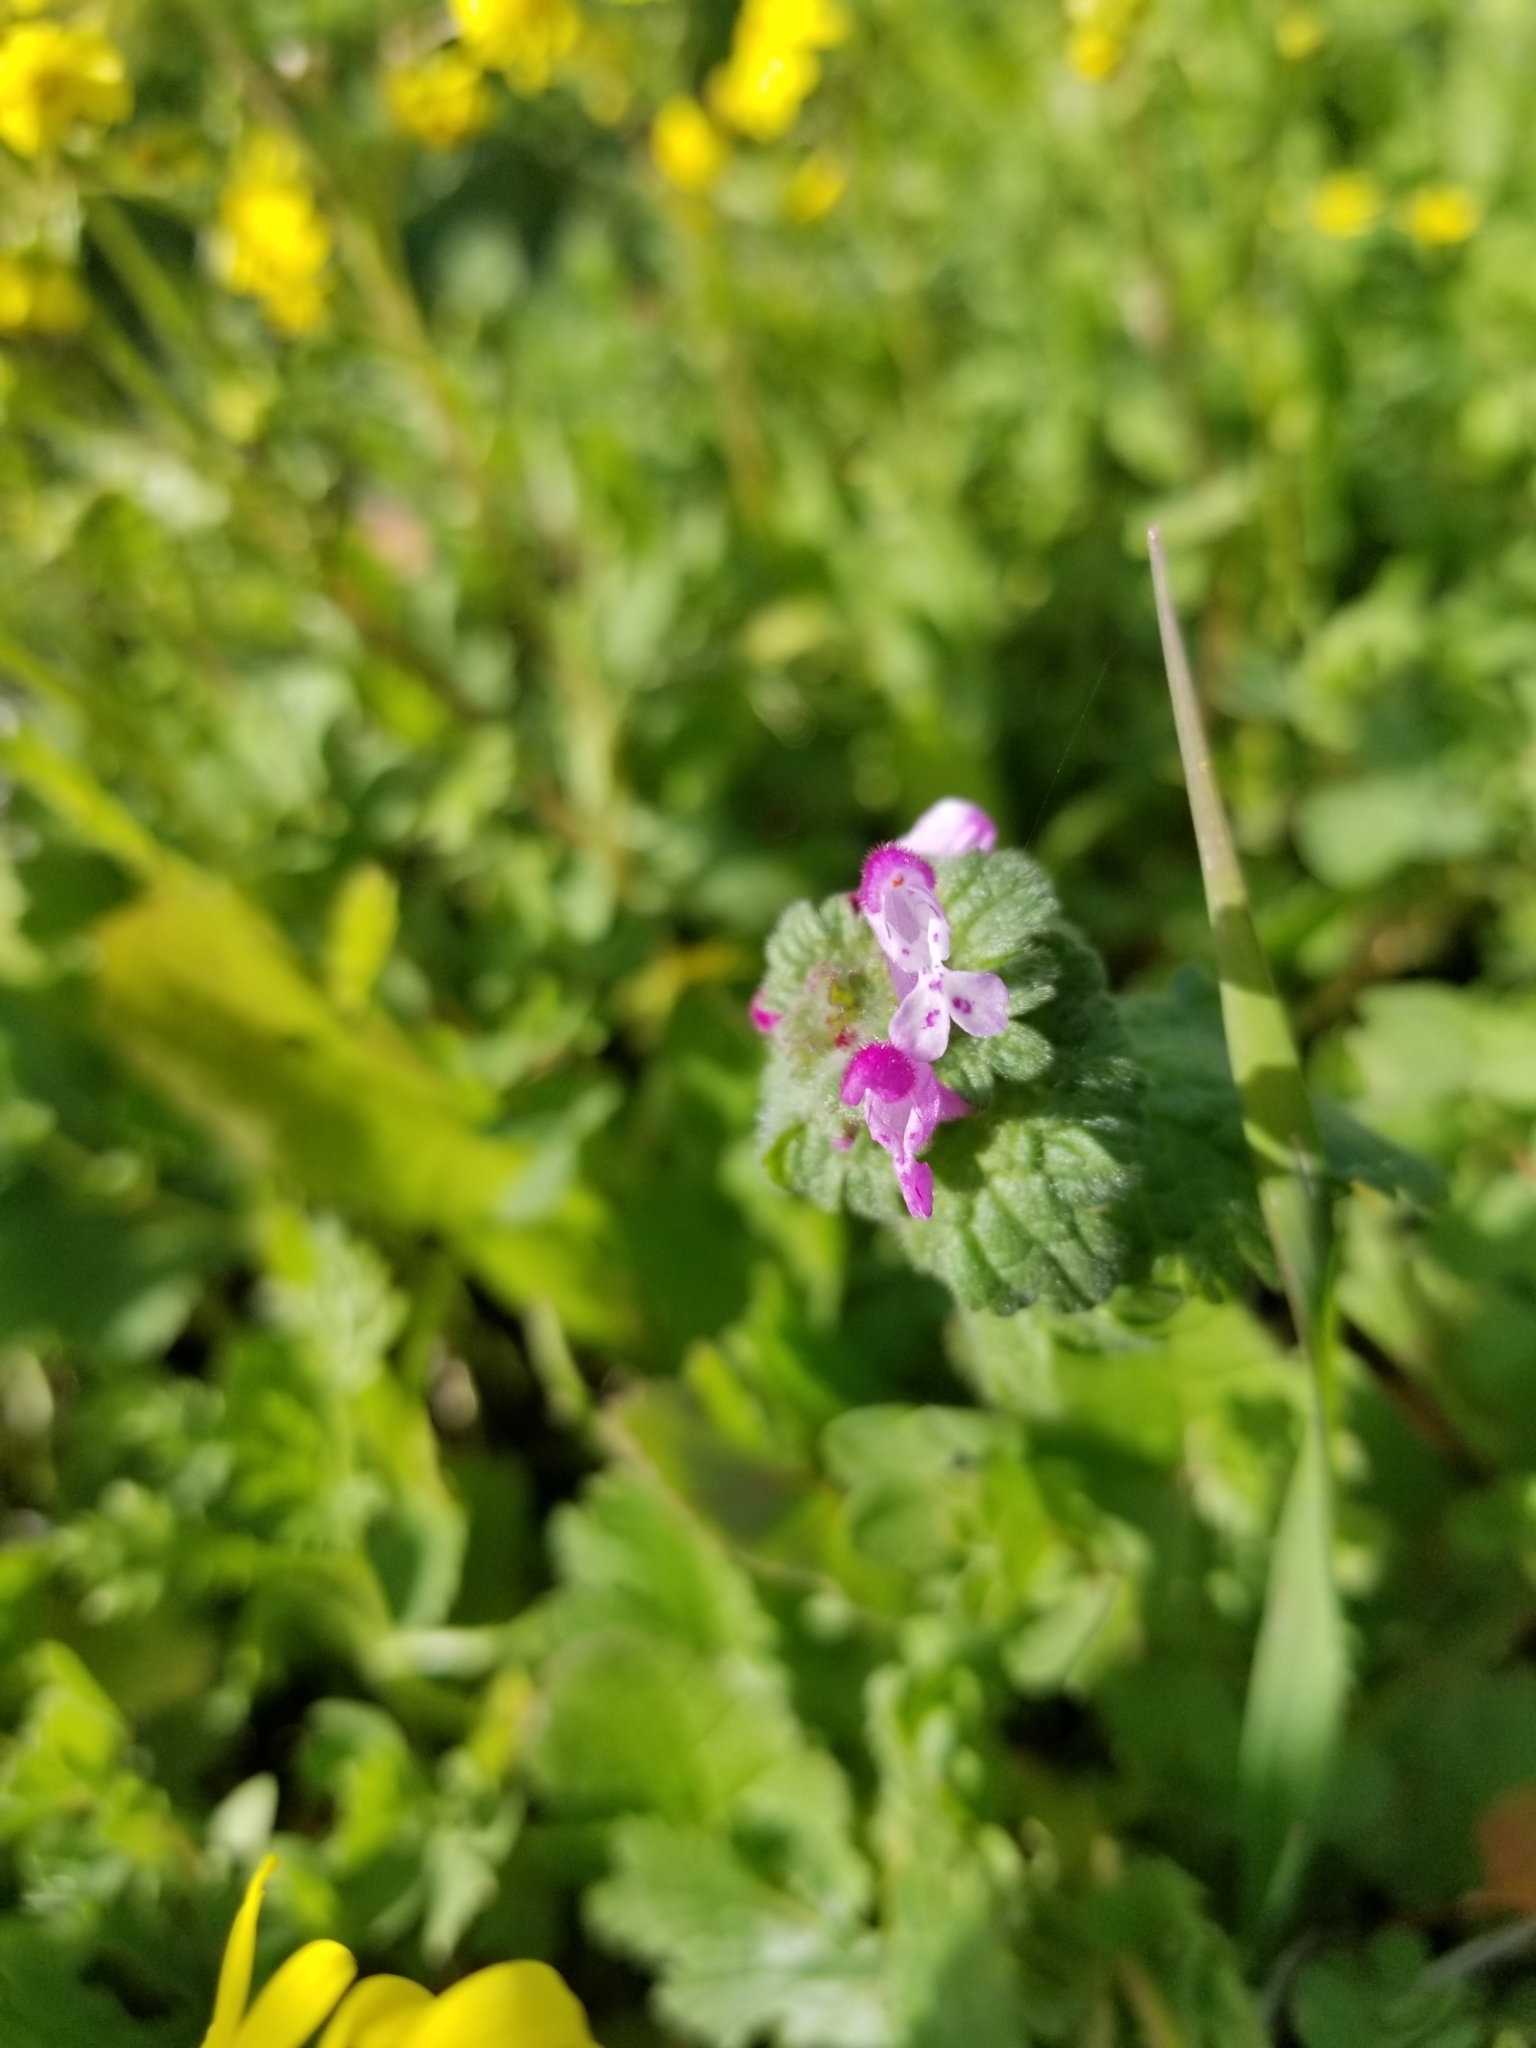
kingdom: Plantae
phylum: Tracheophyta
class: Magnoliopsida
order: Lamiales
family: Lamiaceae
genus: Lamium
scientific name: Lamium amplexicaule
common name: Henbit dead-nettle
